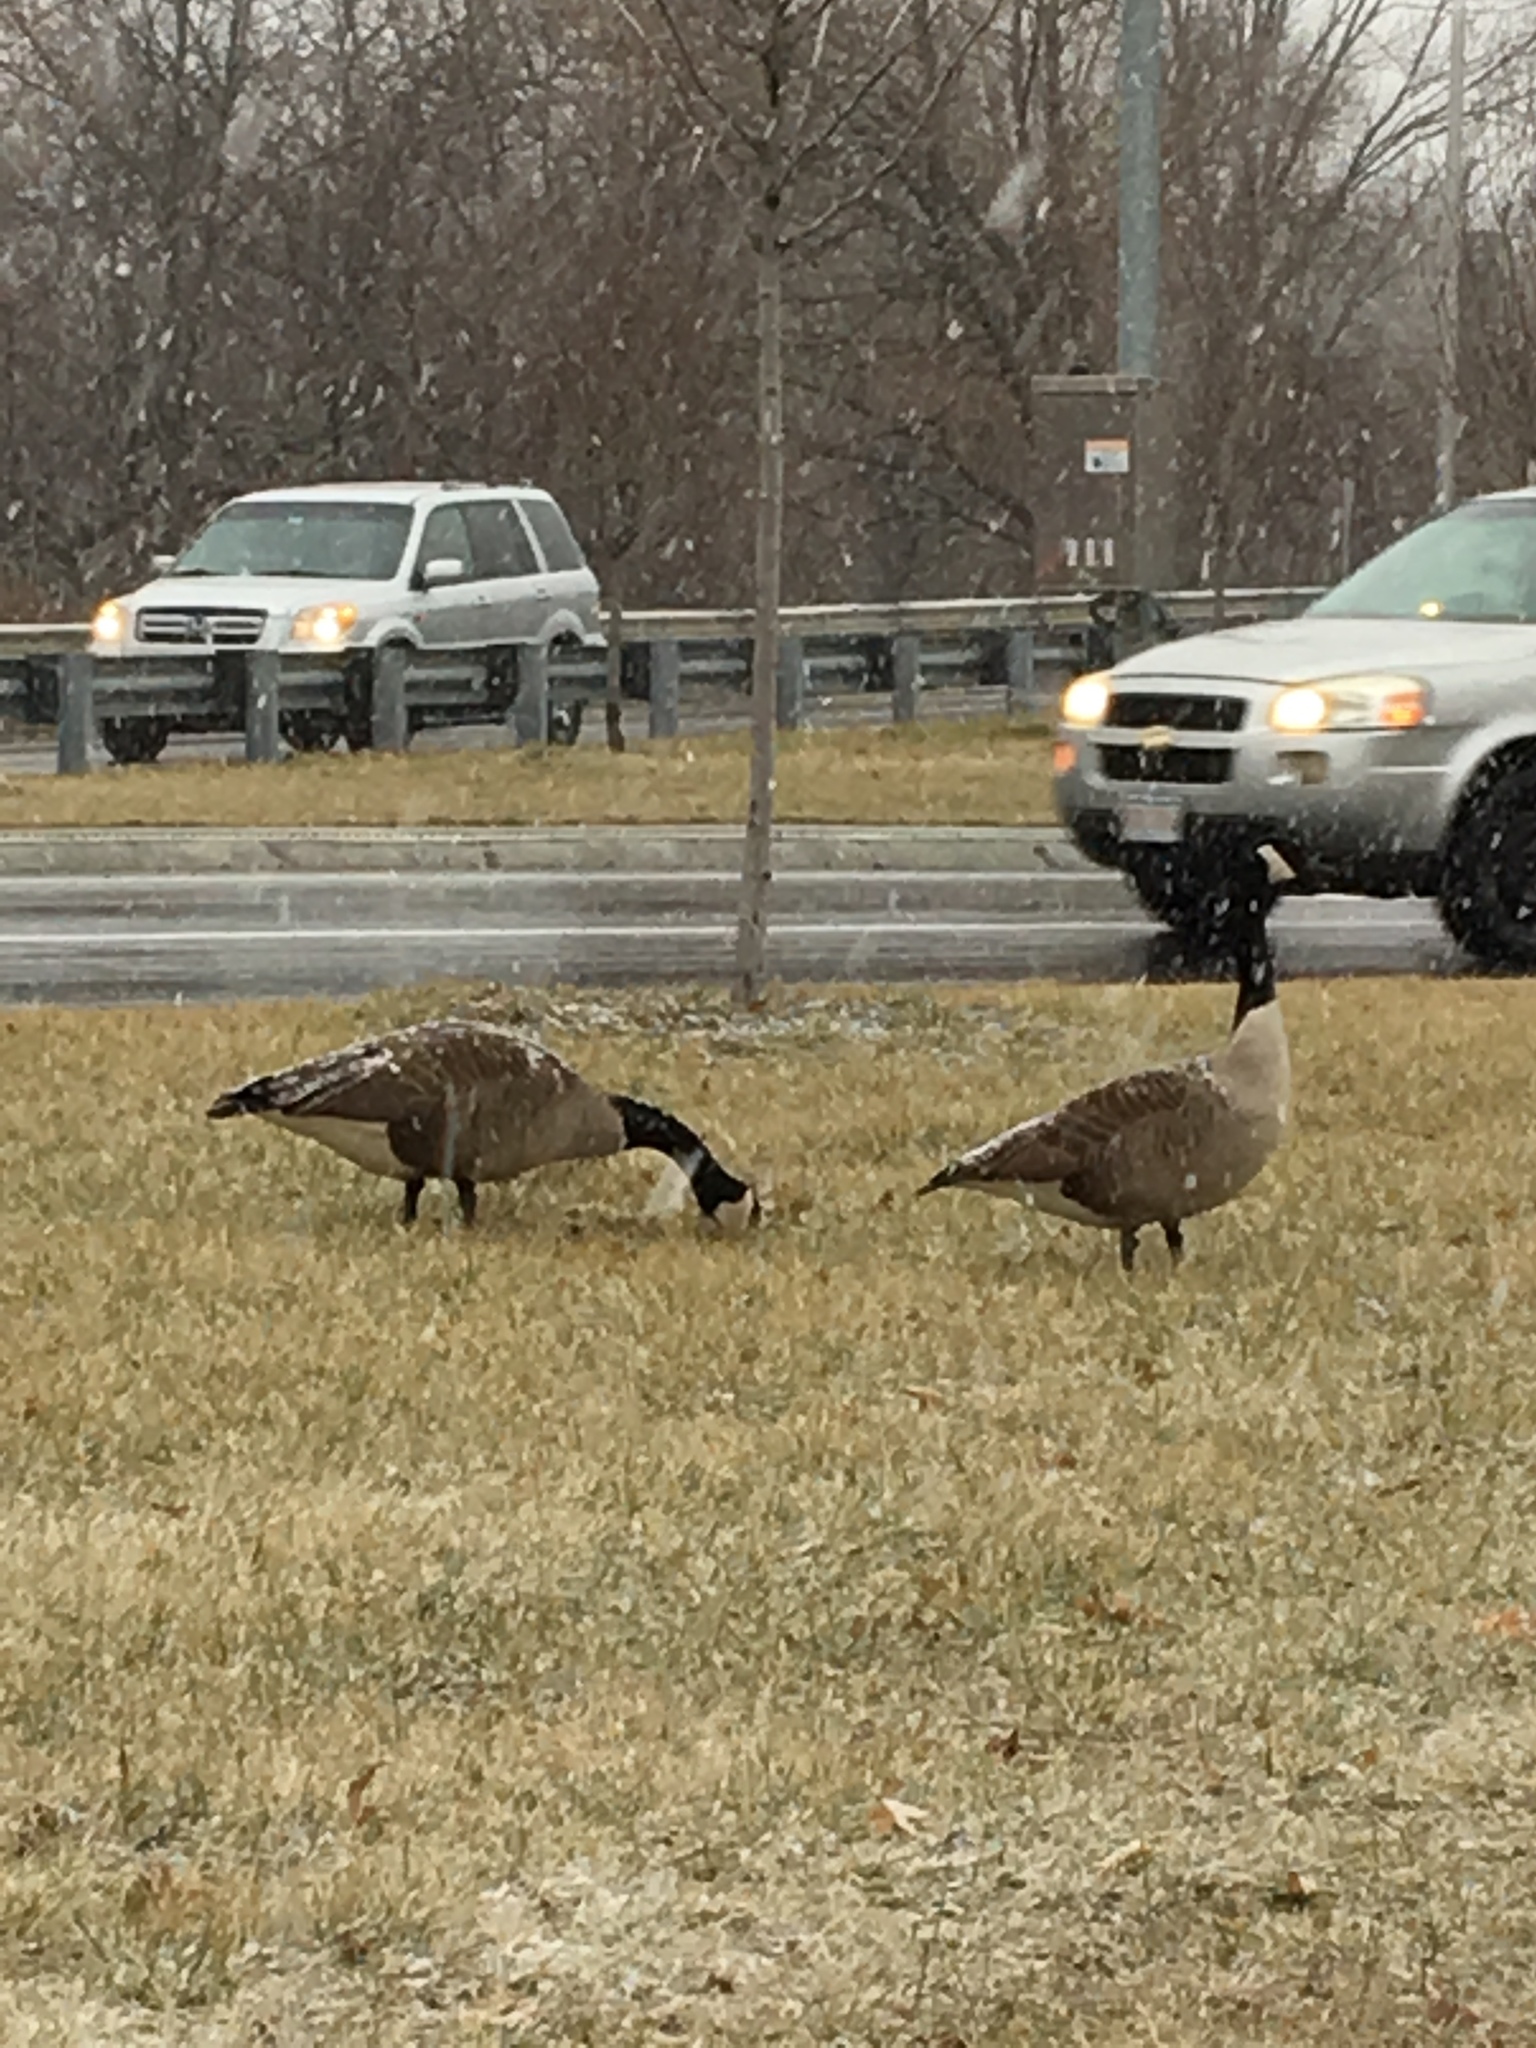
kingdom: Animalia
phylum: Chordata
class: Aves
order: Anseriformes
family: Anatidae
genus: Branta
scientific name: Branta canadensis
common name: Canada goose
